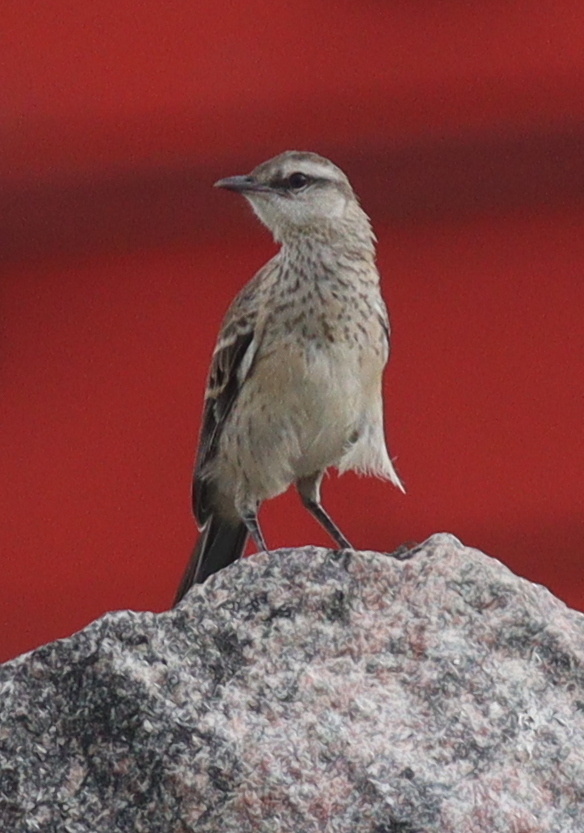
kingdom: Animalia
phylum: Chordata
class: Aves
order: Passeriformes
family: Mimidae
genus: Mimus
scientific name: Mimus saturninus
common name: Chalk-browed mockingbird
